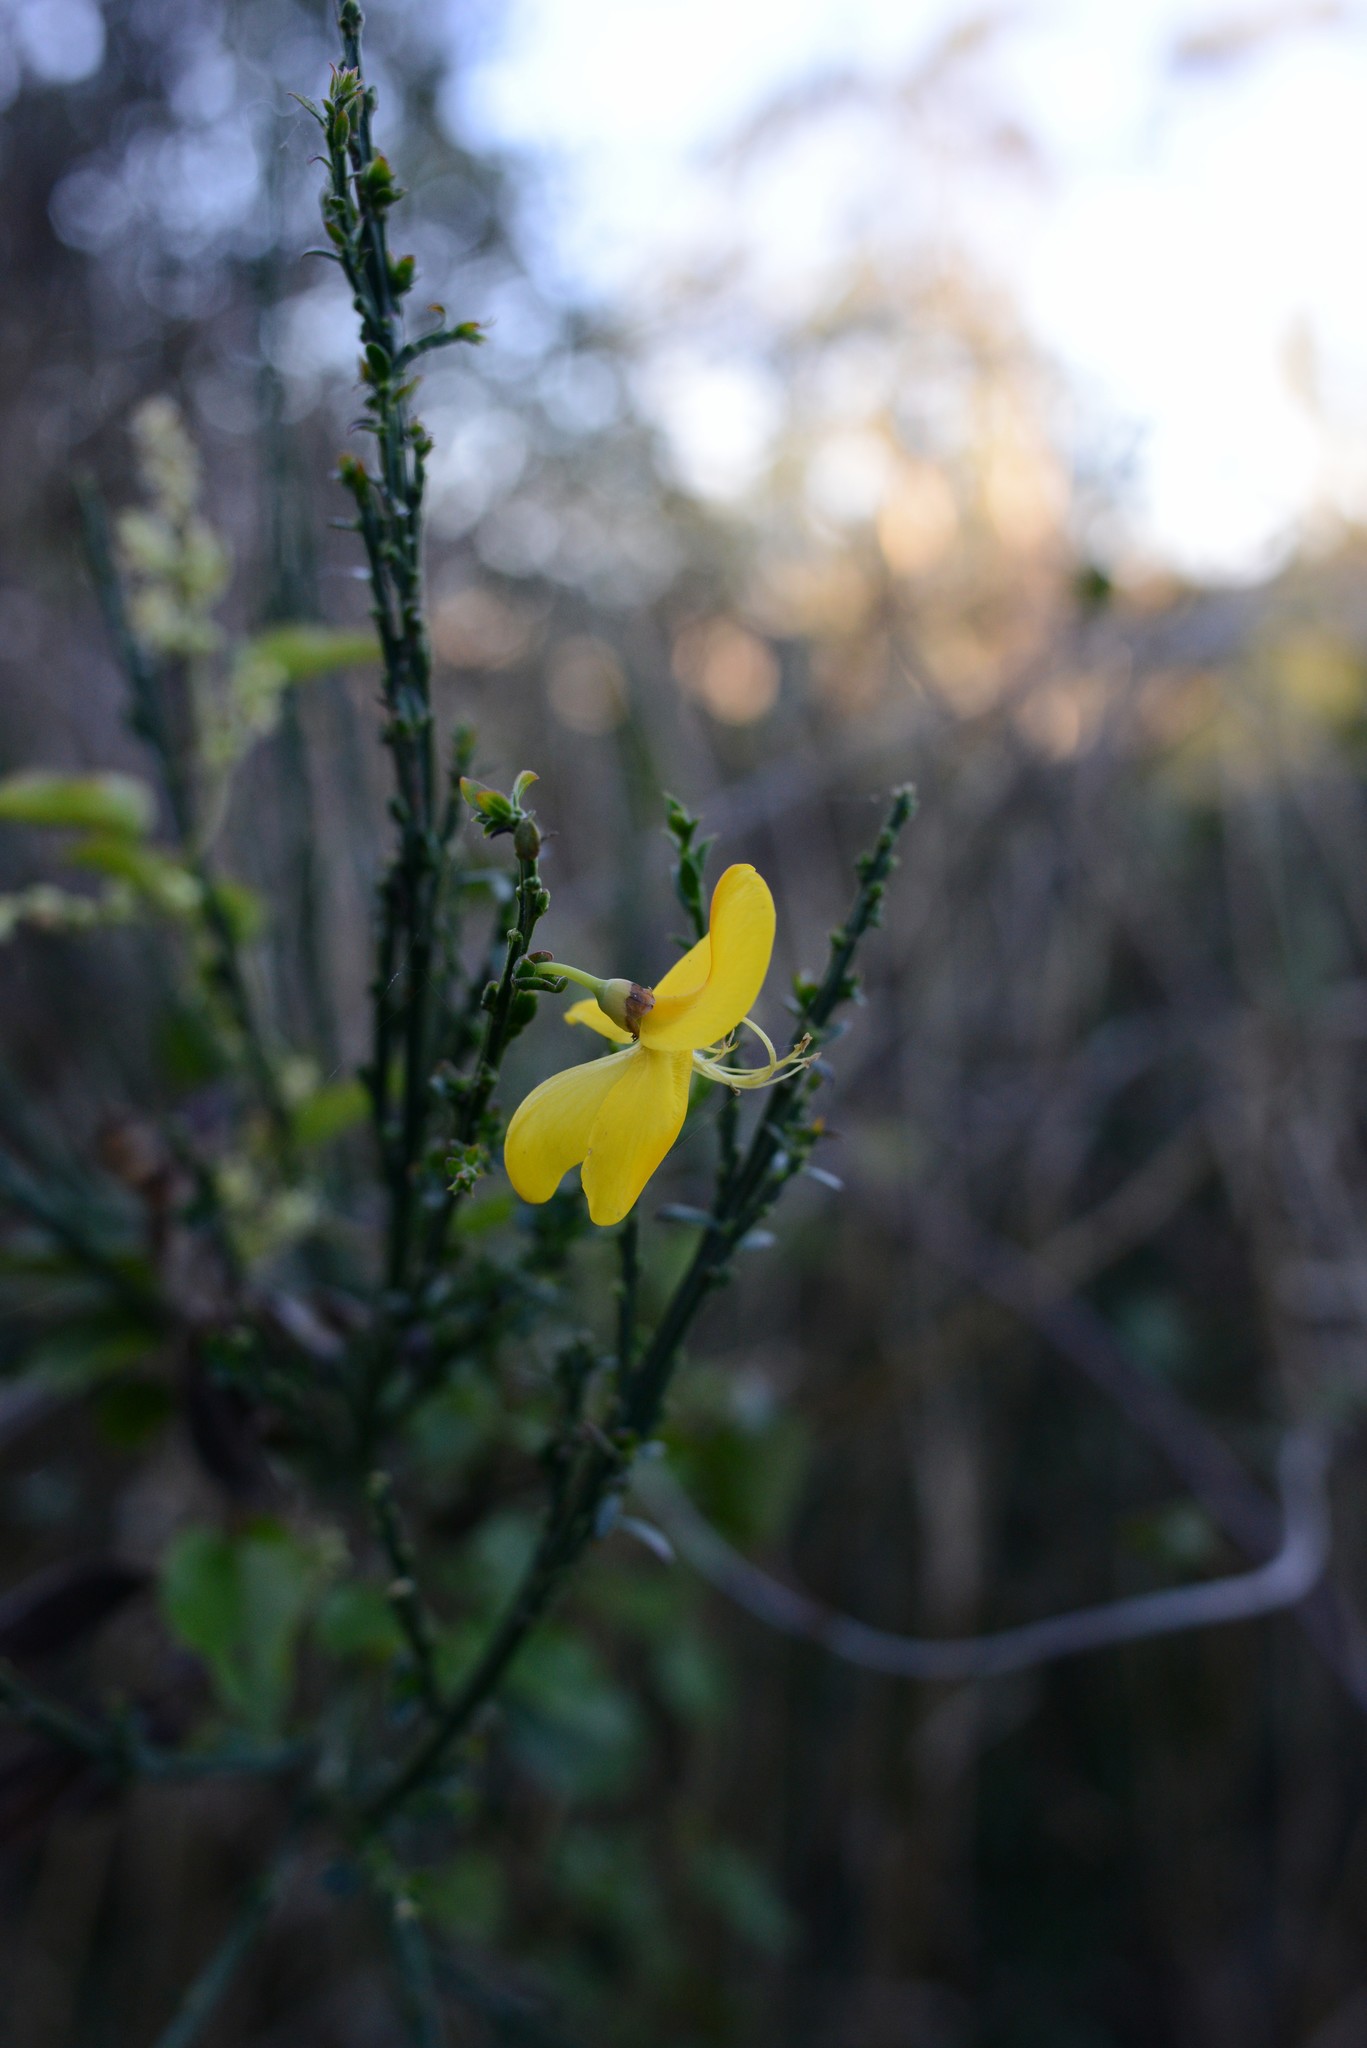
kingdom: Plantae
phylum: Tracheophyta
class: Magnoliopsida
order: Fabales
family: Fabaceae
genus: Cytisus
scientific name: Cytisus scoparius
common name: Scotch broom
